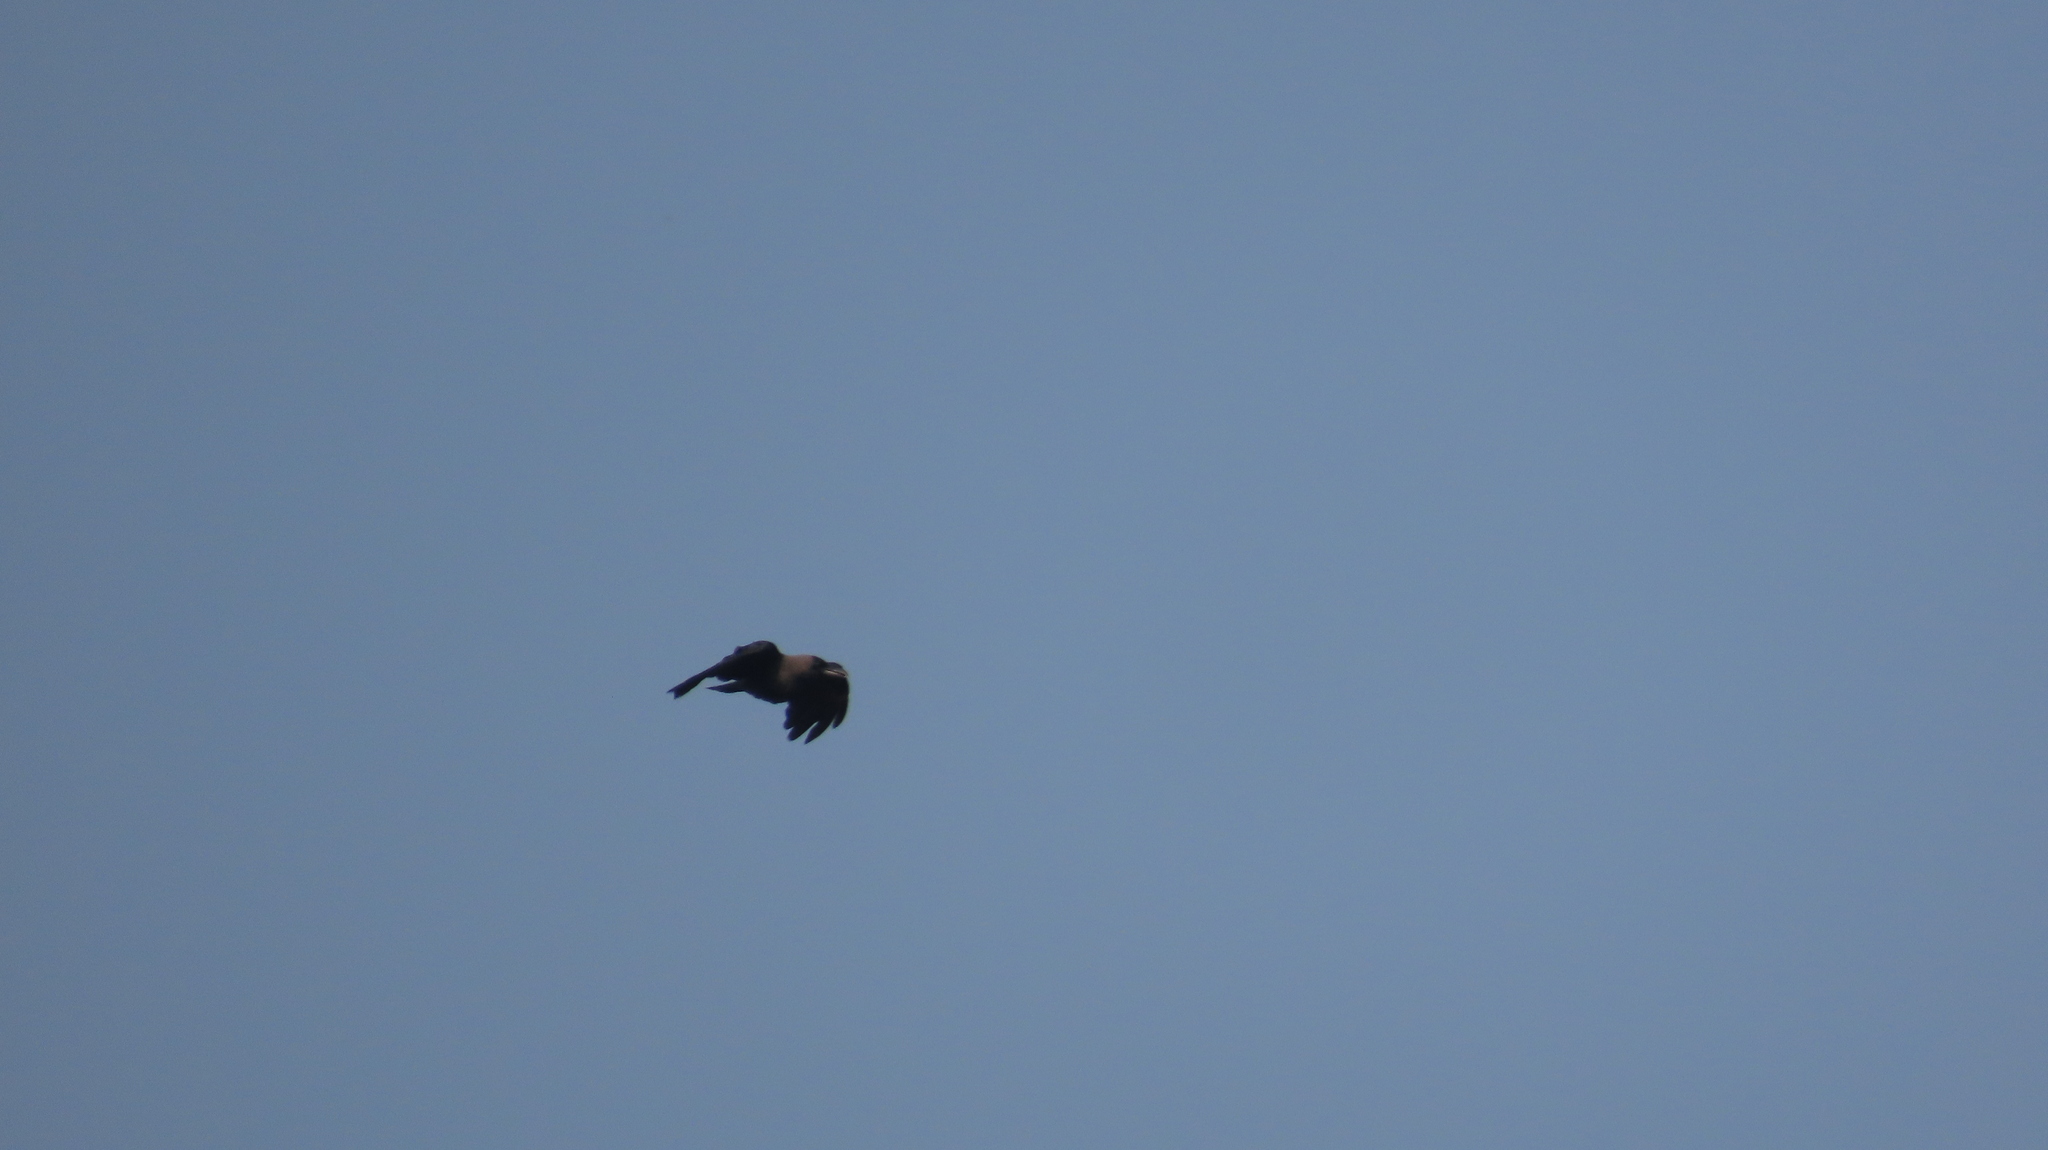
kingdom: Animalia
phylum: Chordata
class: Aves
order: Passeriformes
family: Corvidae
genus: Corvus
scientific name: Corvus splendens
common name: House crow
